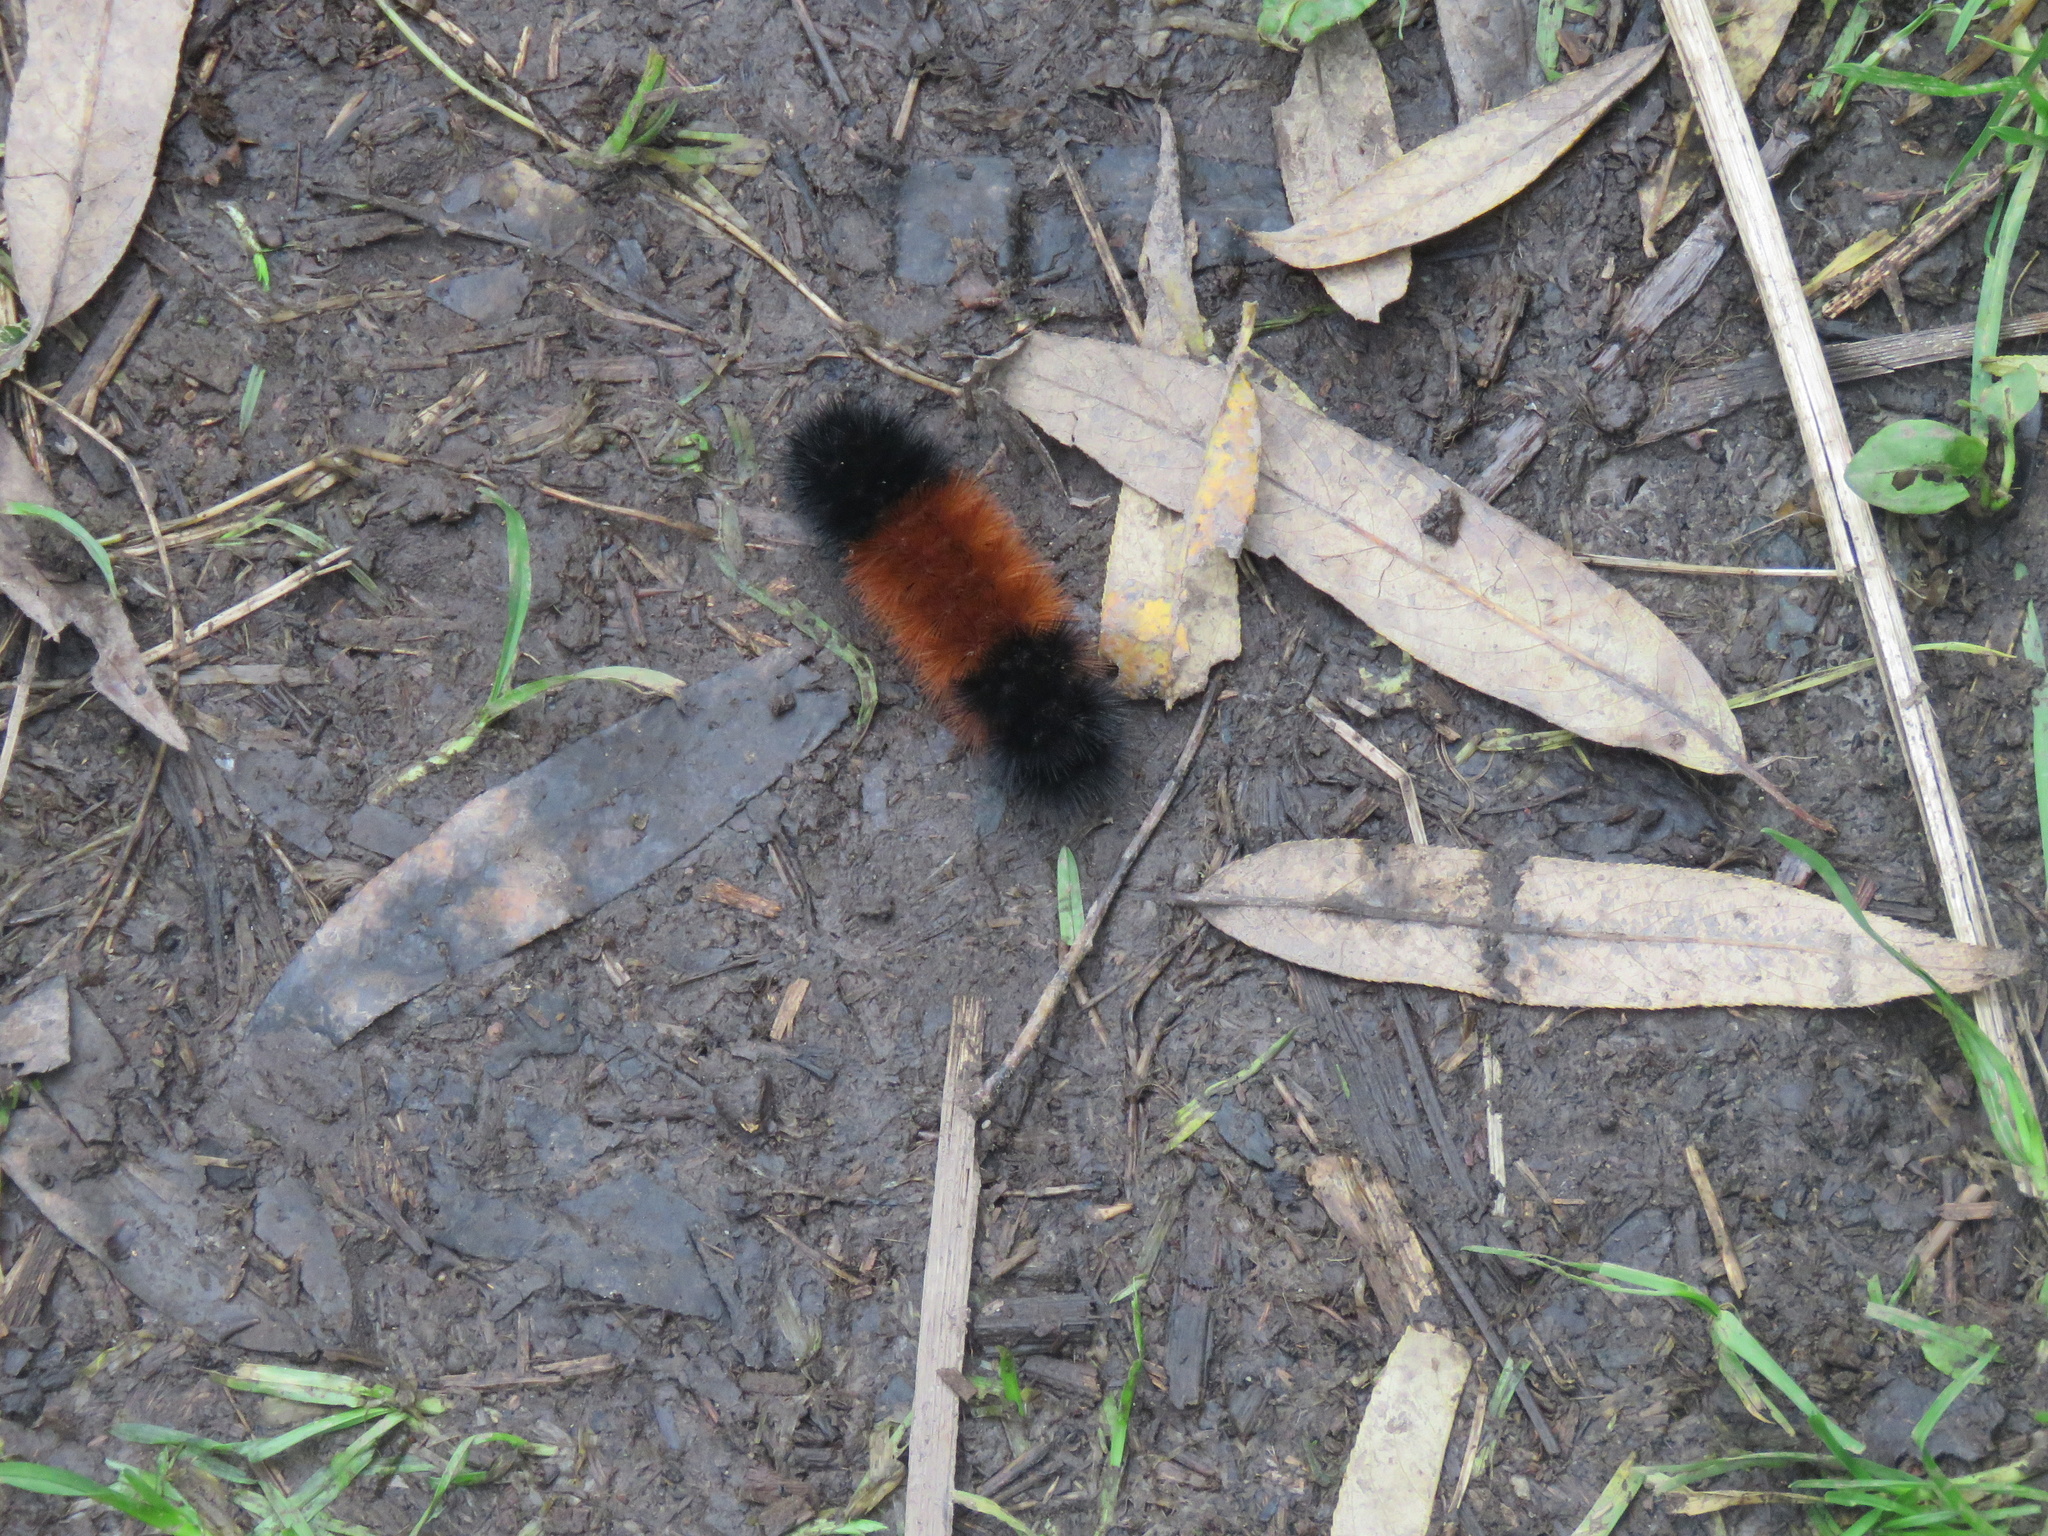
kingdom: Animalia
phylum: Arthropoda
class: Insecta
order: Lepidoptera
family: Erebidae
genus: Pyrrharctia
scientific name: Pyrrharctia isabella
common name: Isabella tiger moth
